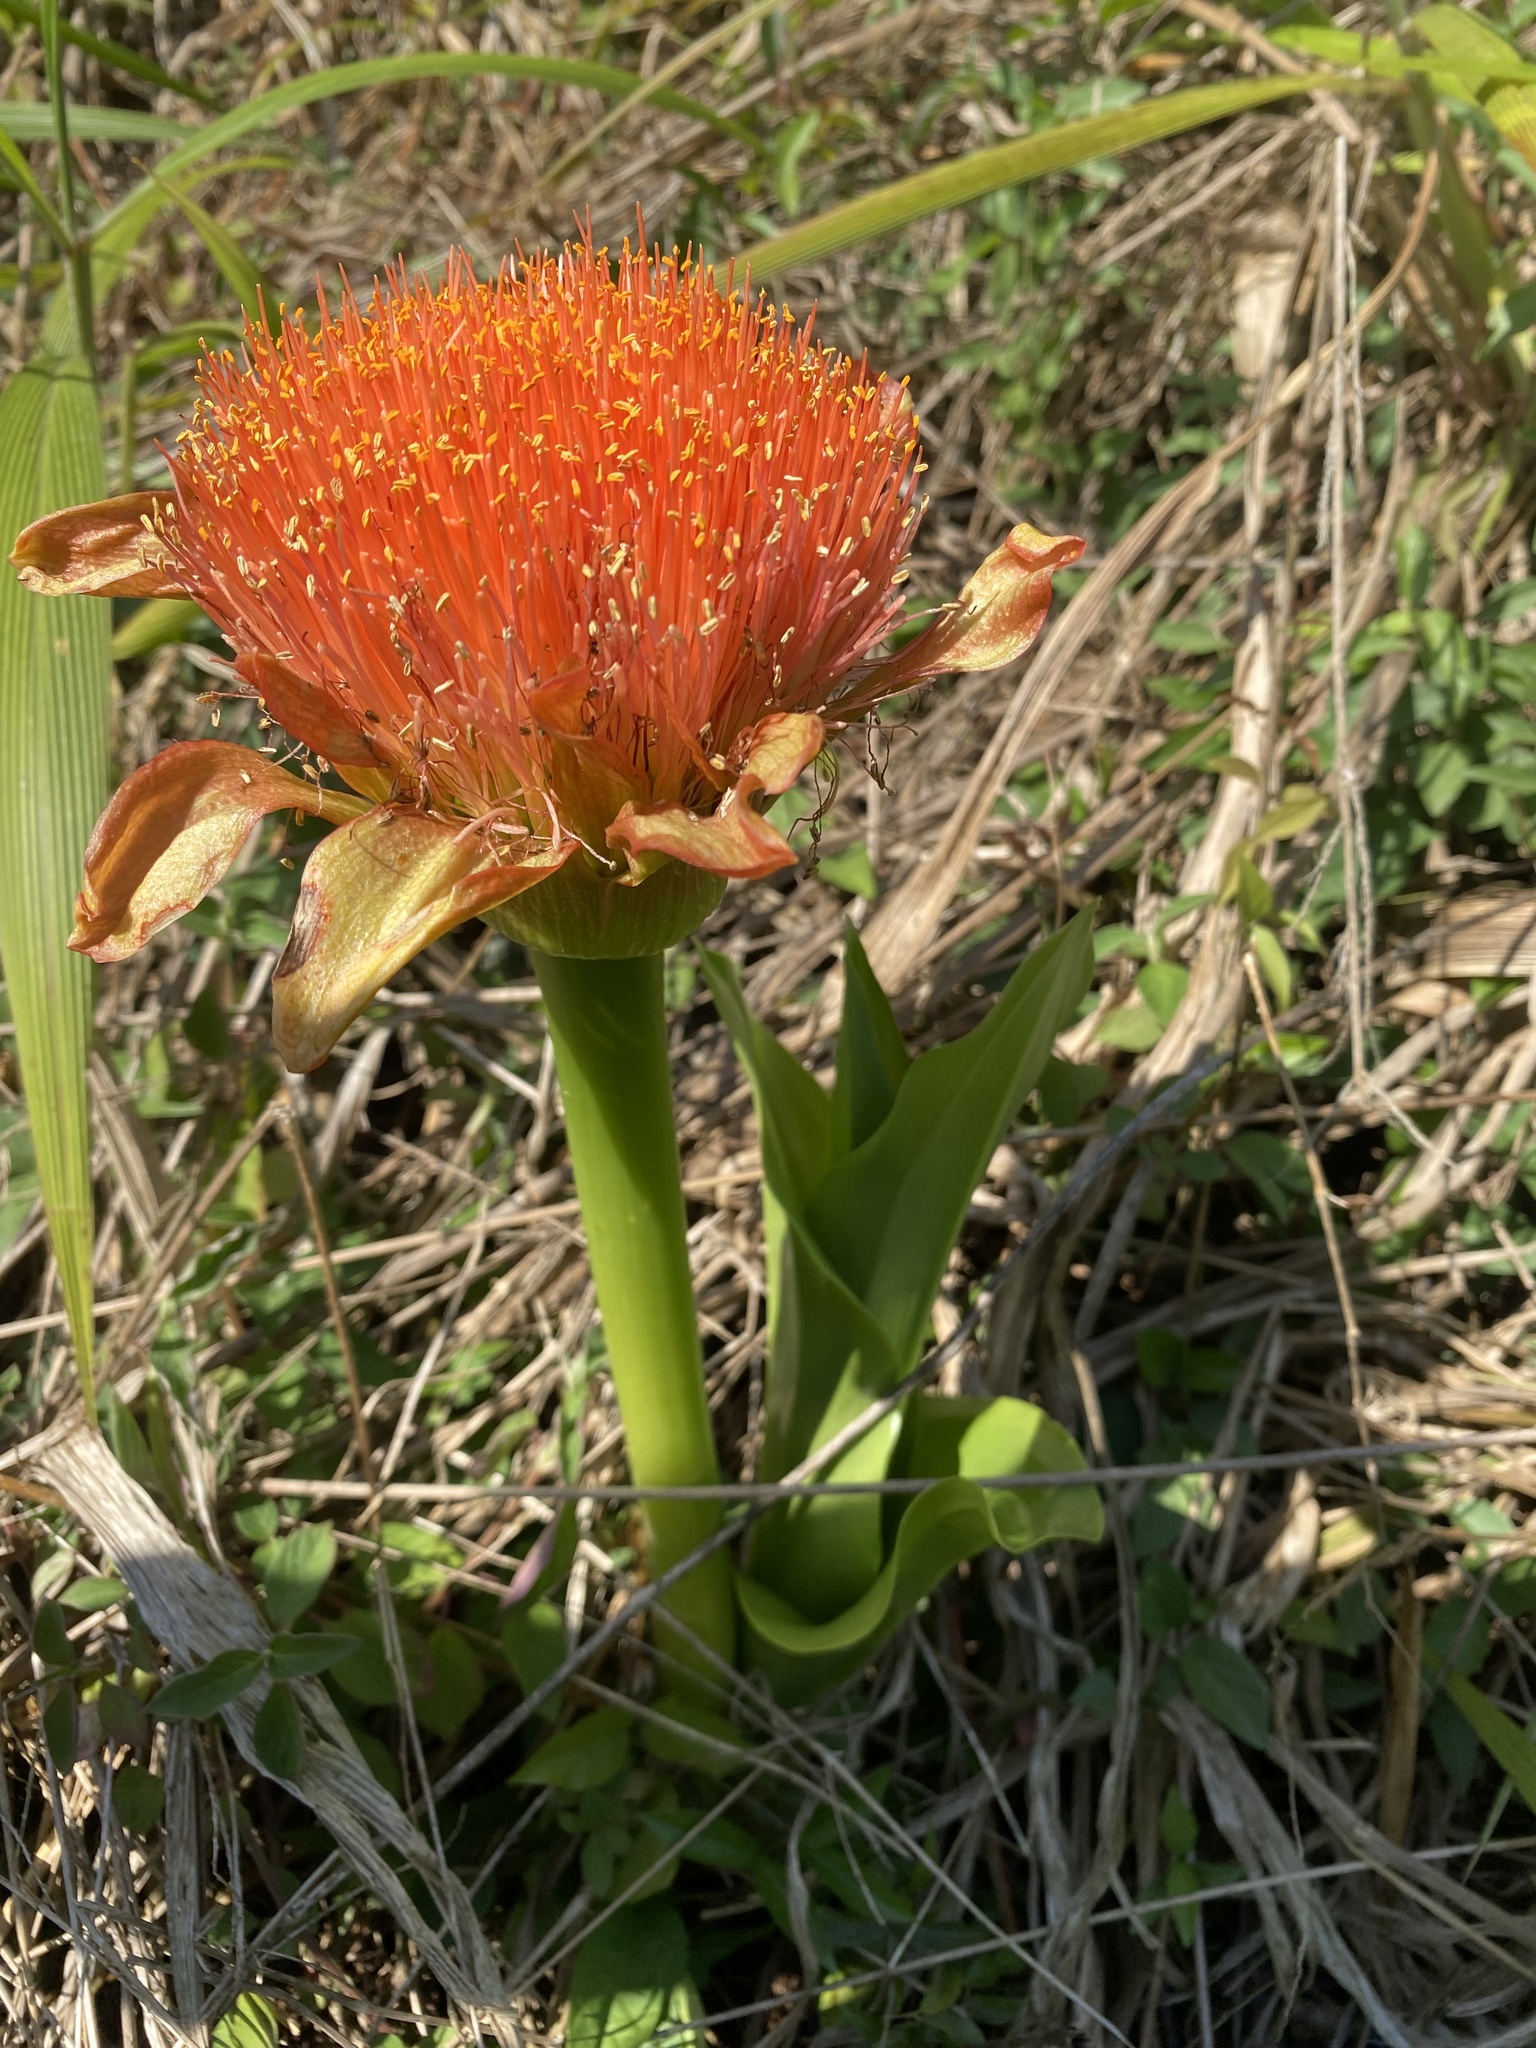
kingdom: Plantae
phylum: Tracheophyta
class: Liliopsida
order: Asparagales
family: Amaryllidaceae
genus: Scadoxus
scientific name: Scadoxus puniceus
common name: Royal-paintbrush
